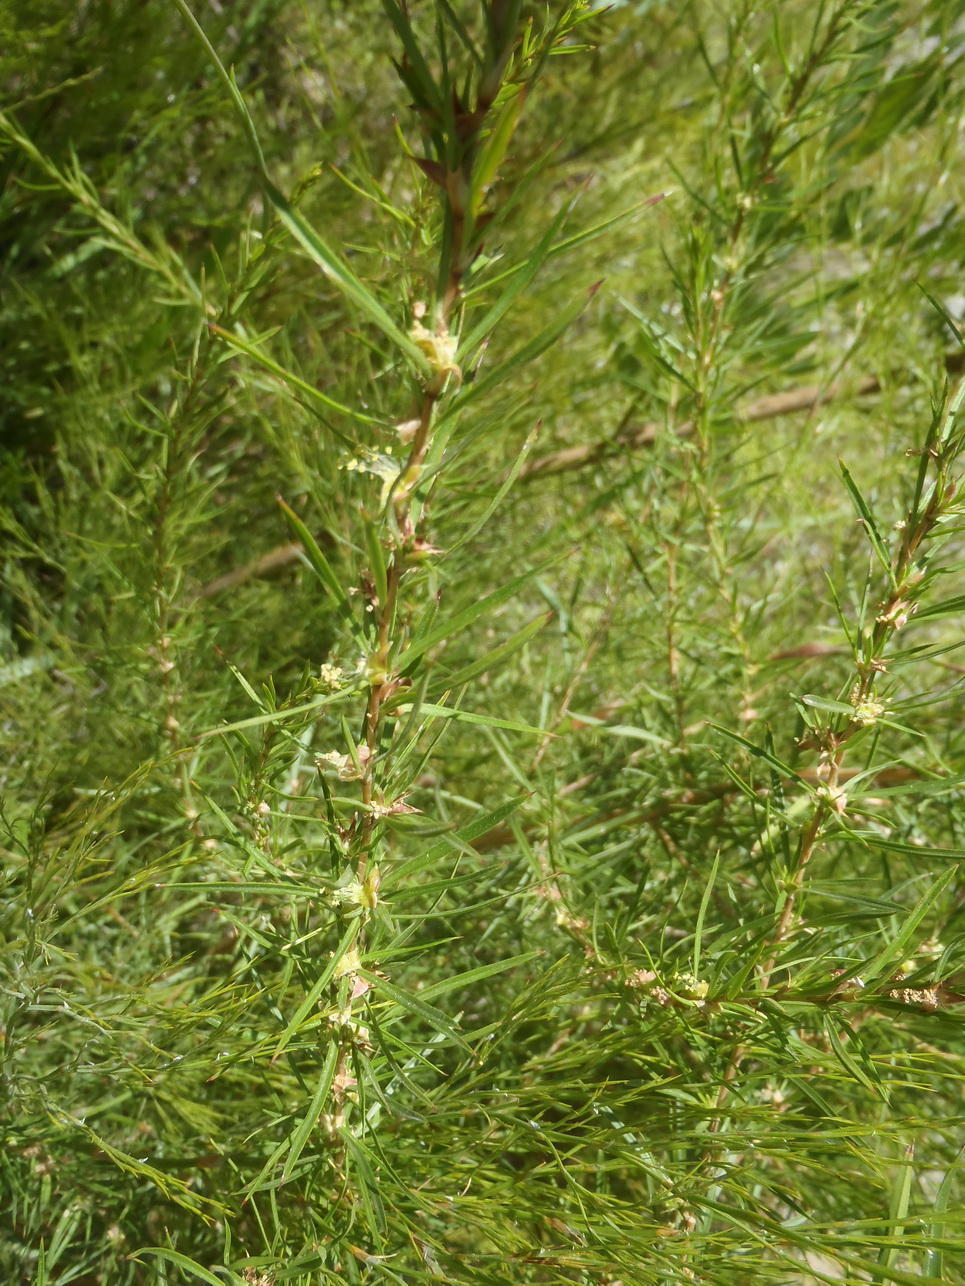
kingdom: Plantae
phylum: Tracheophyta
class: Magnoliopsida
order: Rosales
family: Rosaceae
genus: Cliffortia
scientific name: Cliffortia strobilifera
